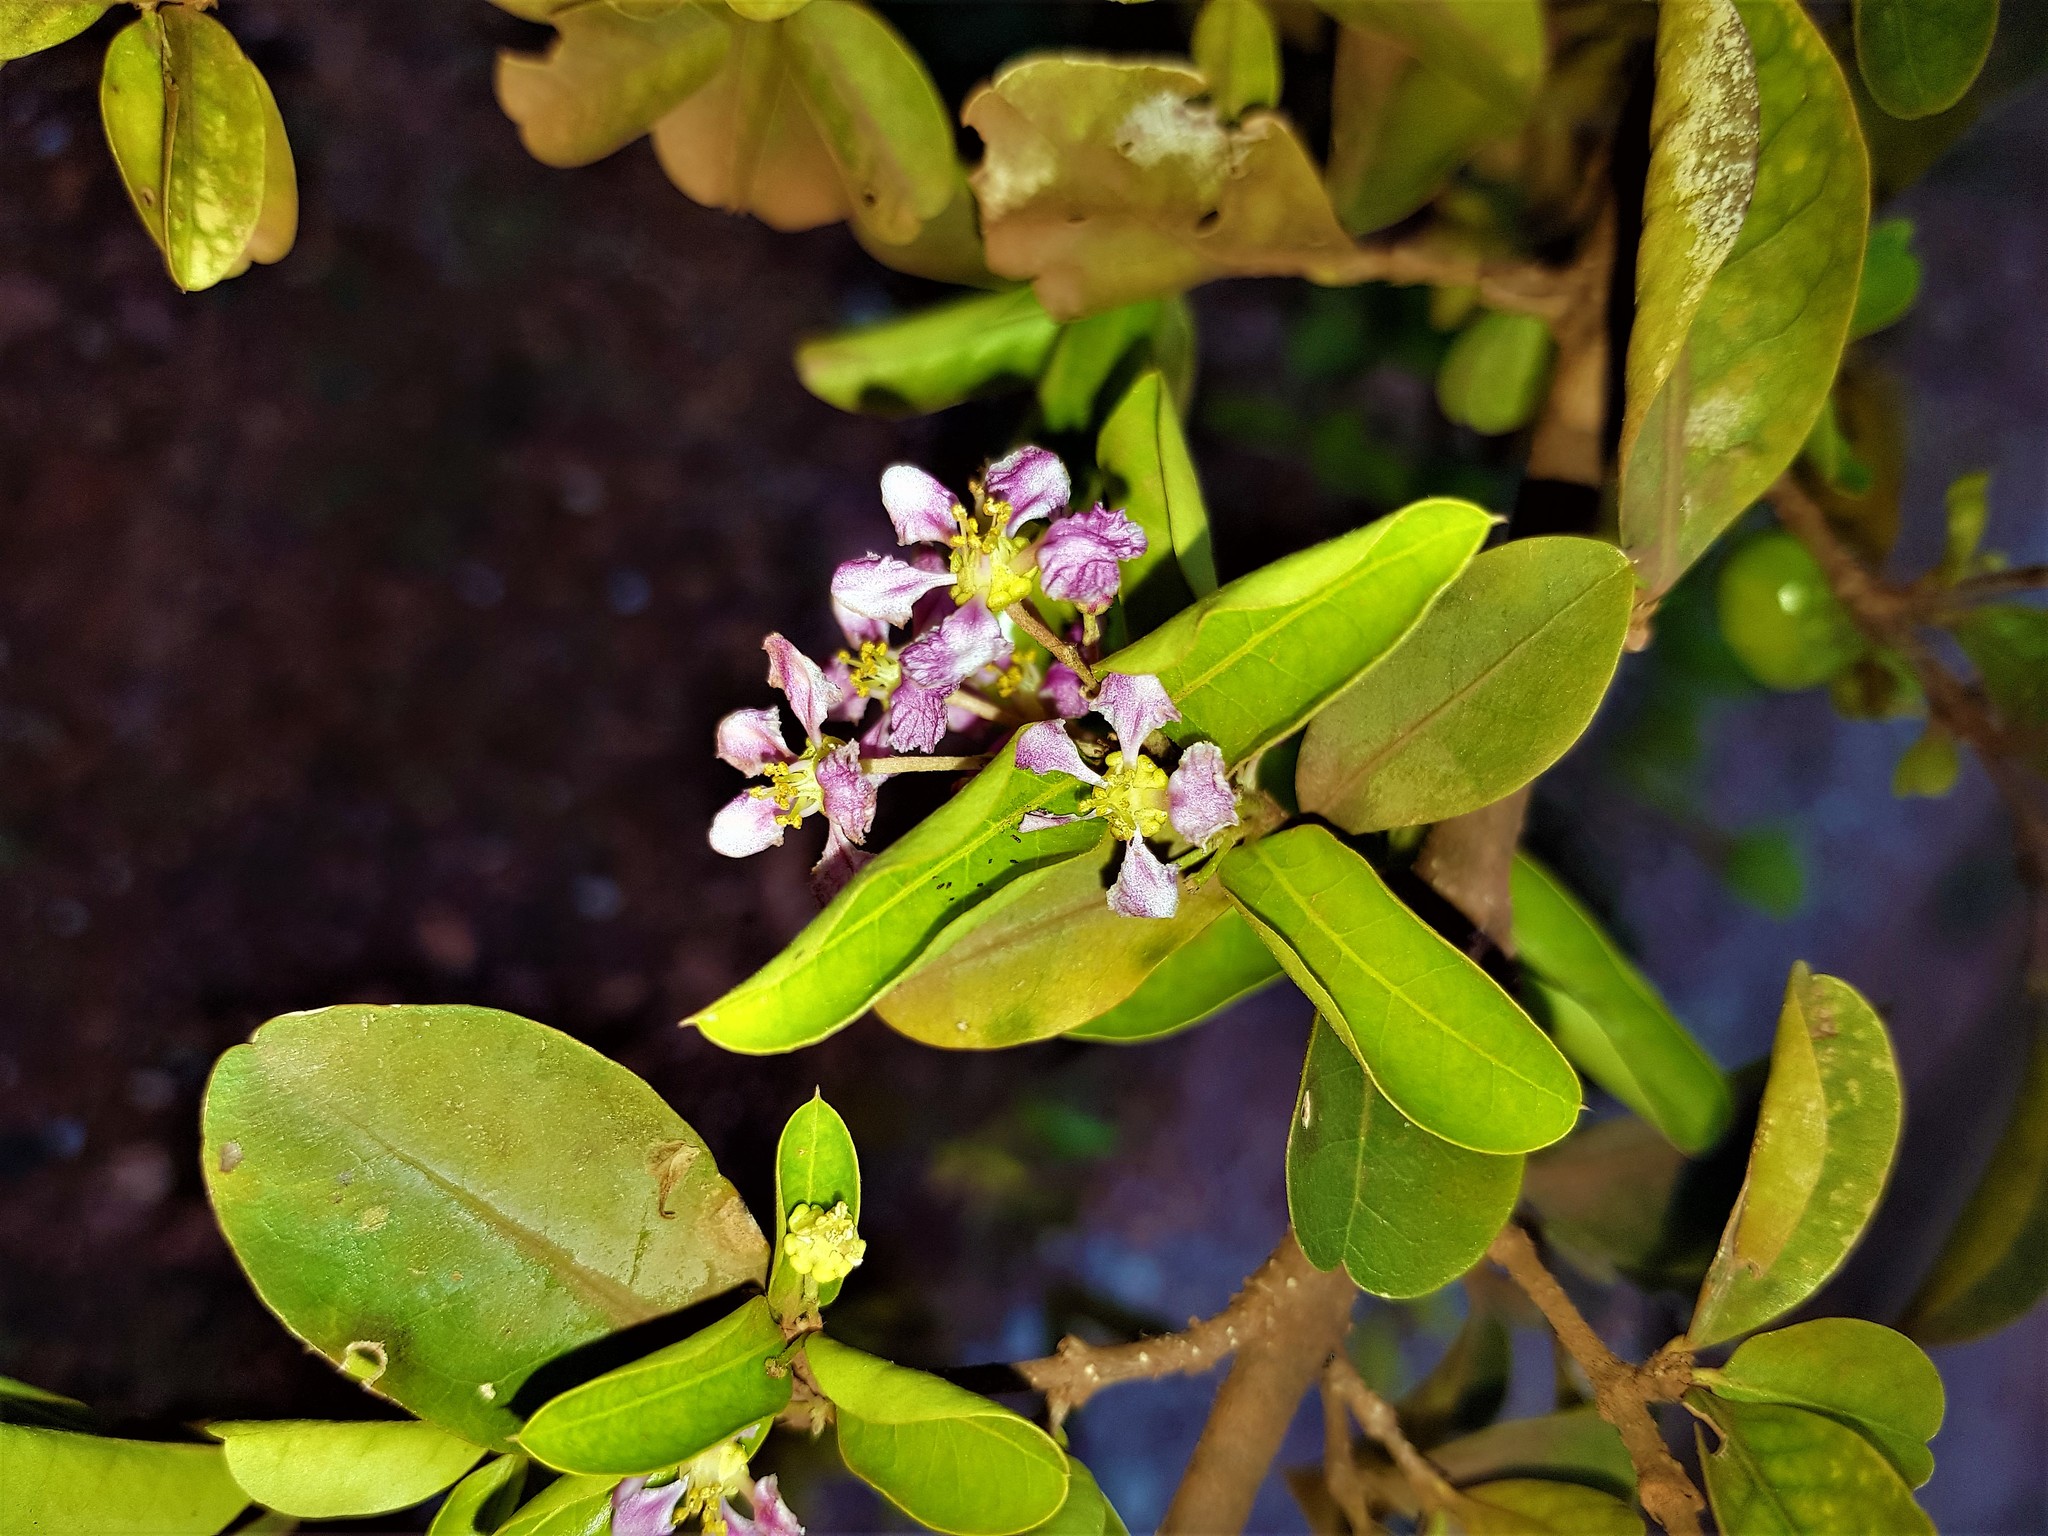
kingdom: Plantae
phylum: Tracheophyta
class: Magnoliopsida
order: Malpighiales
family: Malpighiaceae
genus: Malpighia
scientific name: Malpighia glabra
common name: Barbados cherry
